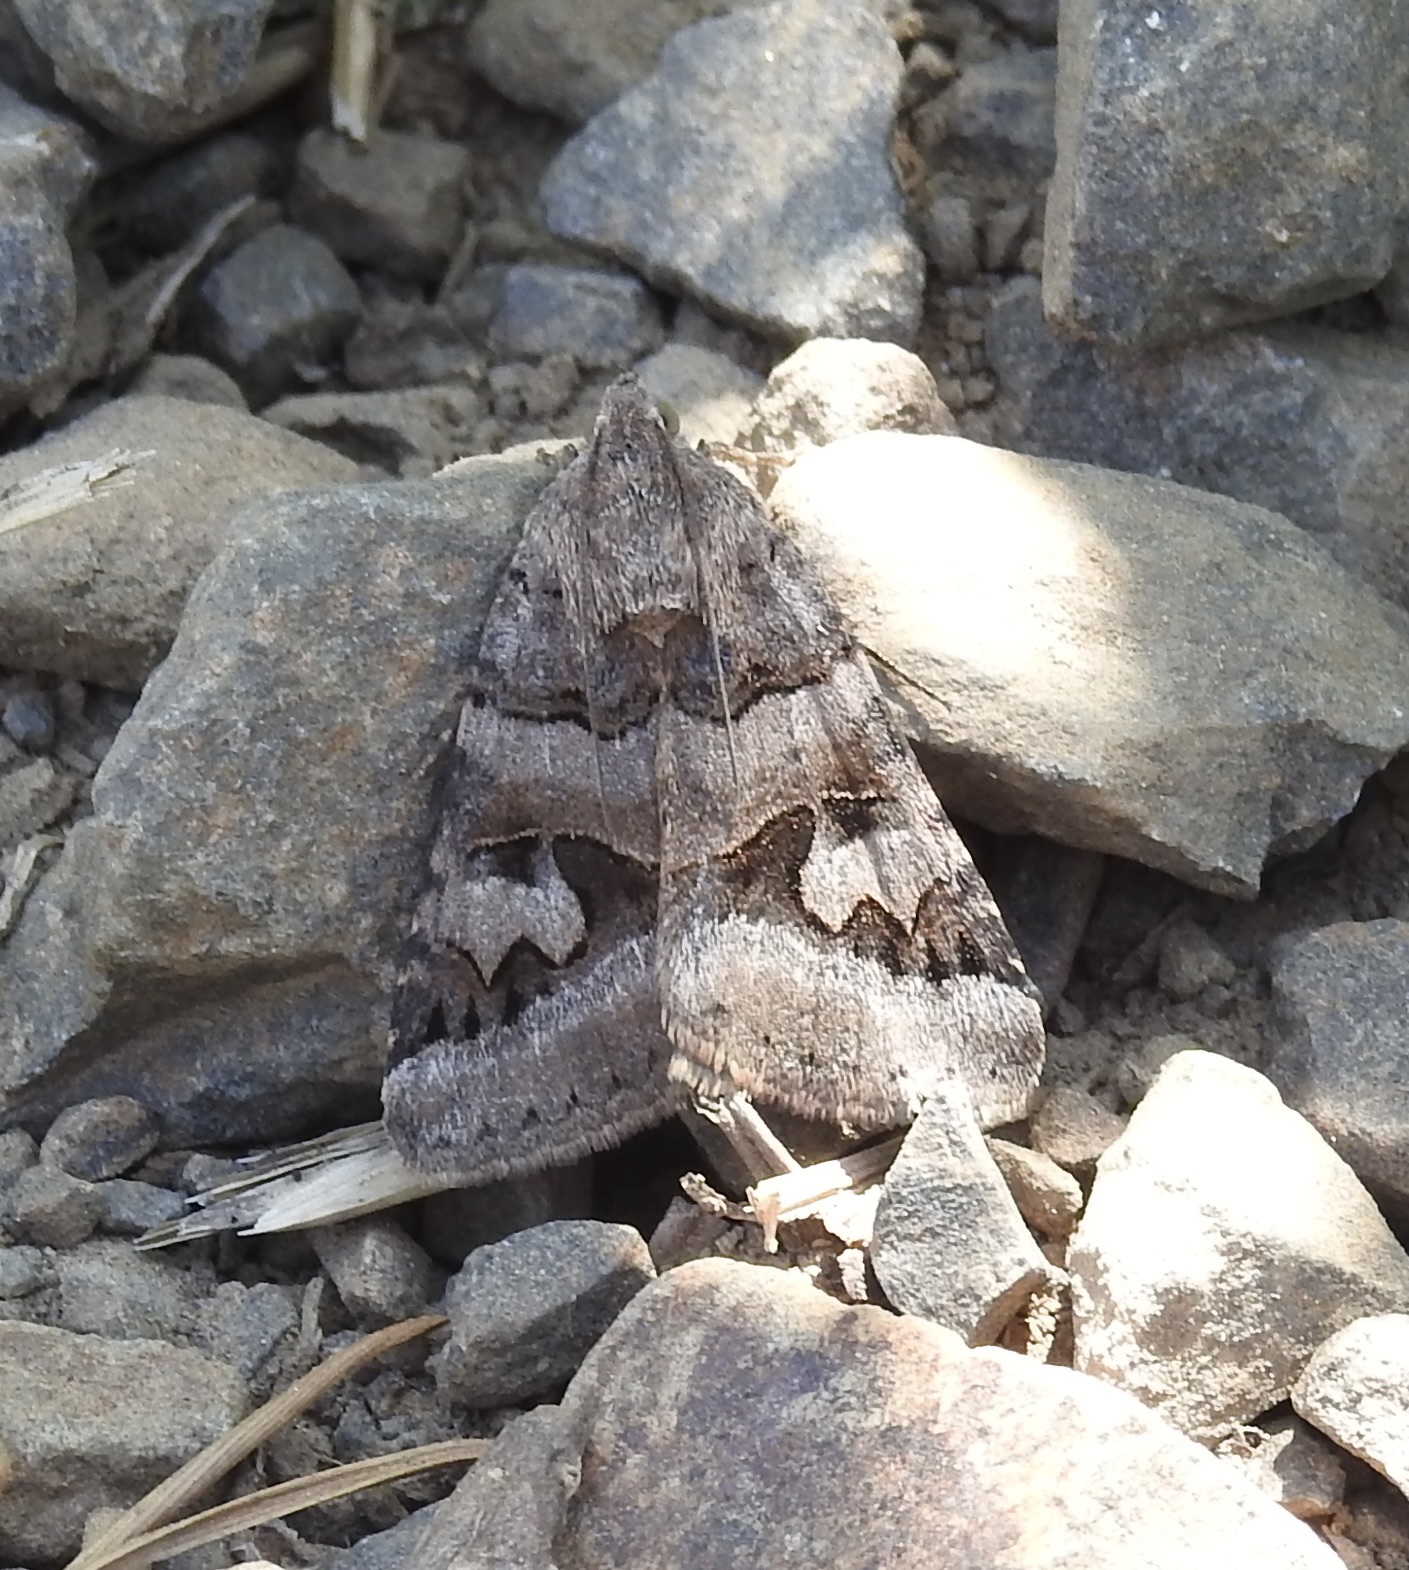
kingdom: Animalia
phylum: Arthropoda
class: Insecta
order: Lepidoptera
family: Erebidae
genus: Drasteria
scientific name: Drasteria adumbrata
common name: Shadowy arches
